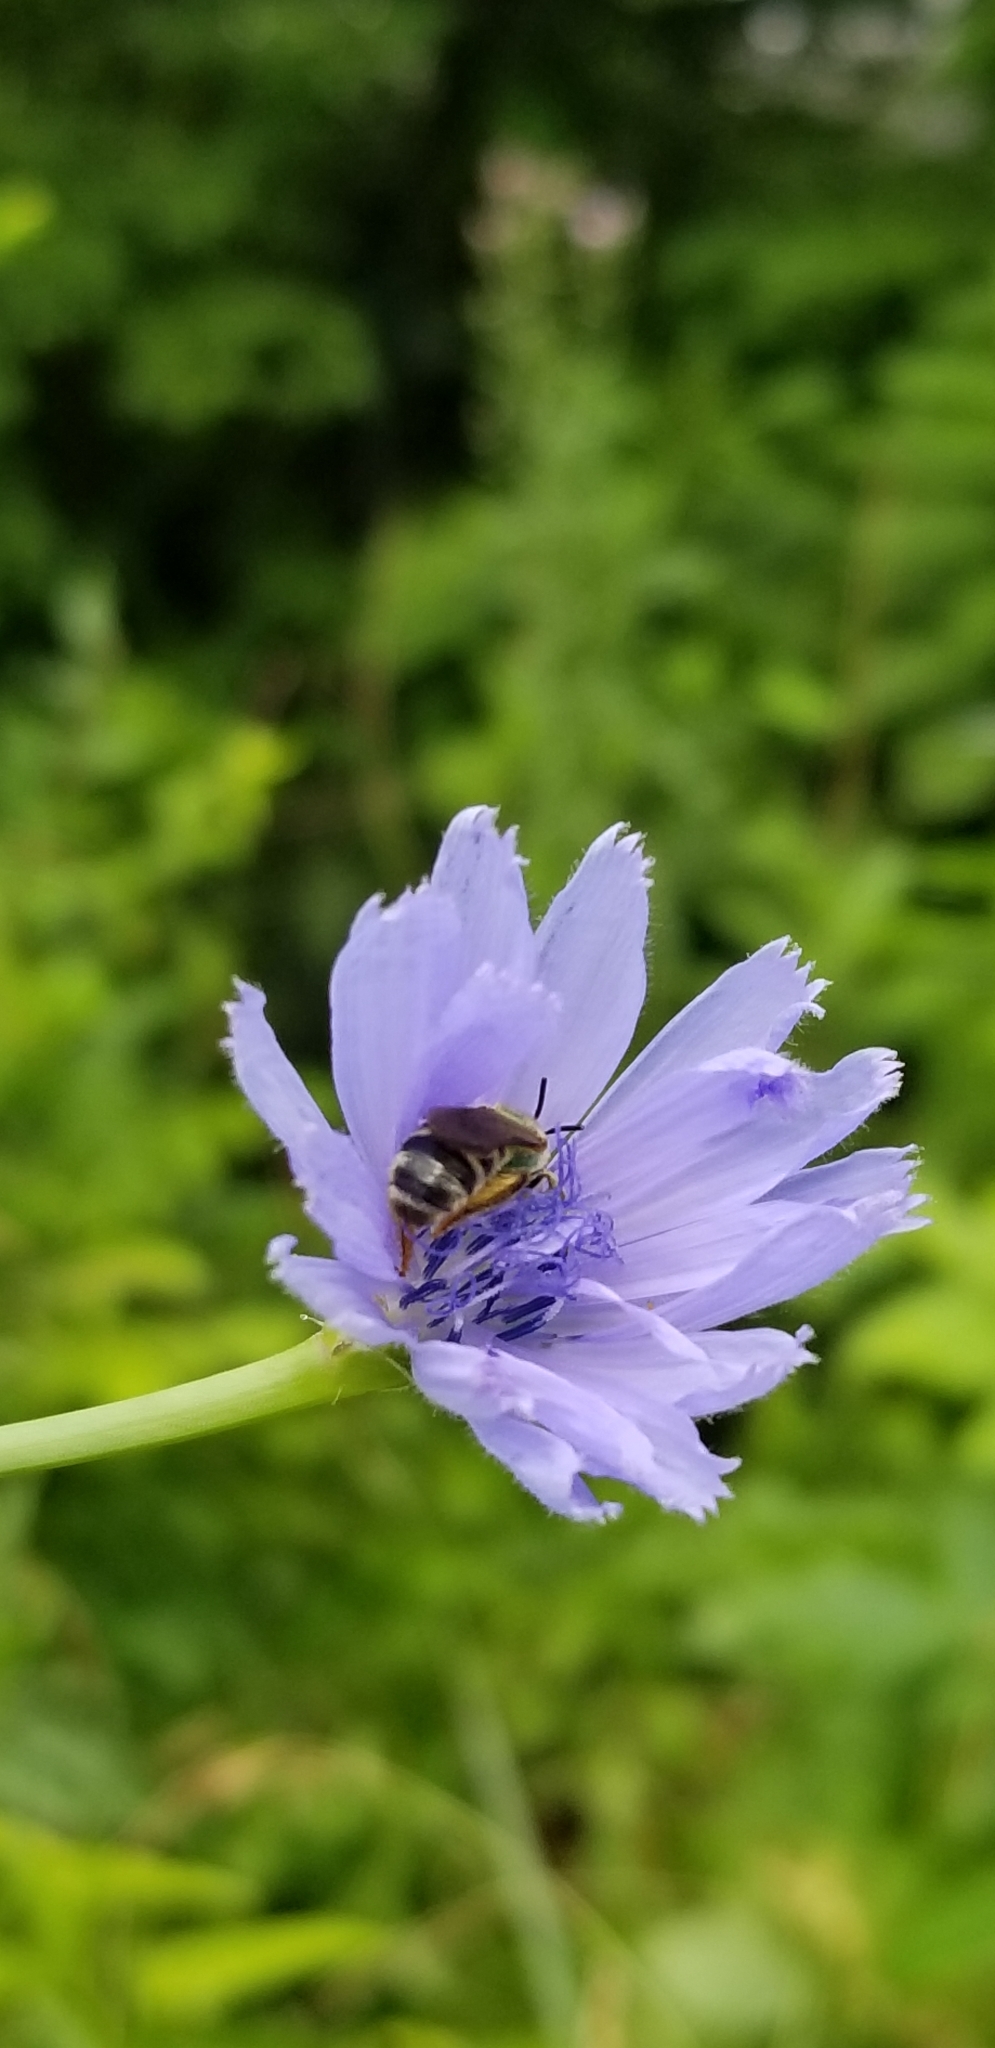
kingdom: Animalia
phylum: Arthropoda
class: Insecta
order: Hymenoptera
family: Halictidae
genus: Agapostemon
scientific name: Agapostemon virescens
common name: Bicolored striped sweat bee
